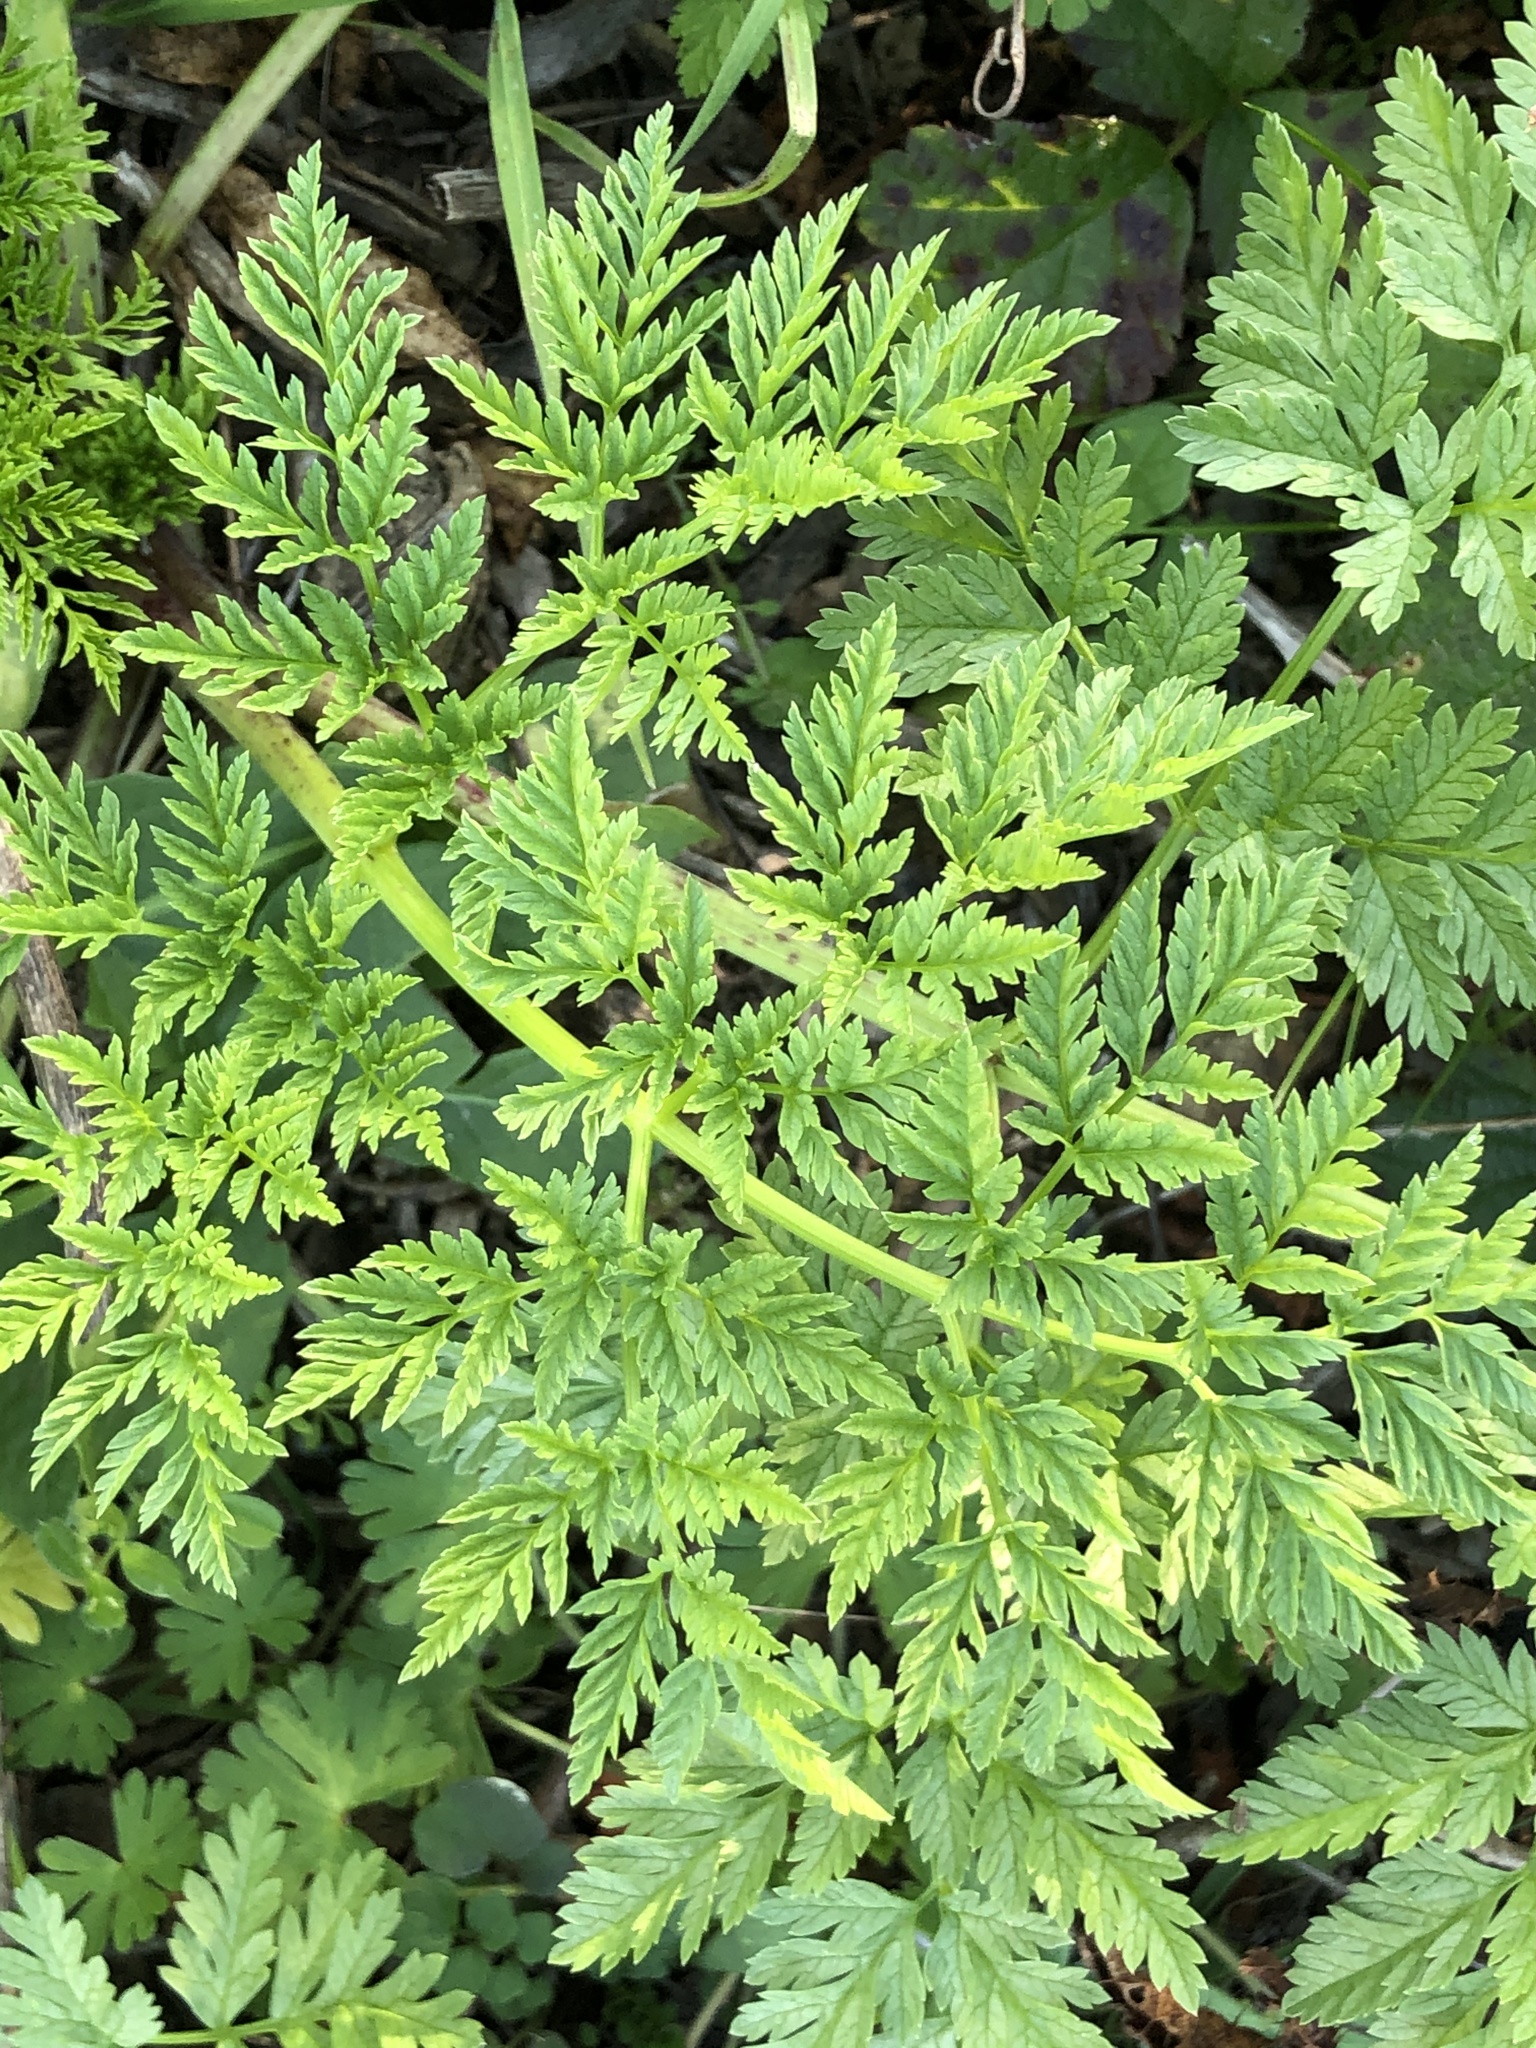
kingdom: Plantae
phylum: Tracheophyta
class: Magnoliopsida
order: Apiales
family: Apiaceae
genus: Conium
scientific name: Conium maculatum
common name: Hemlock
